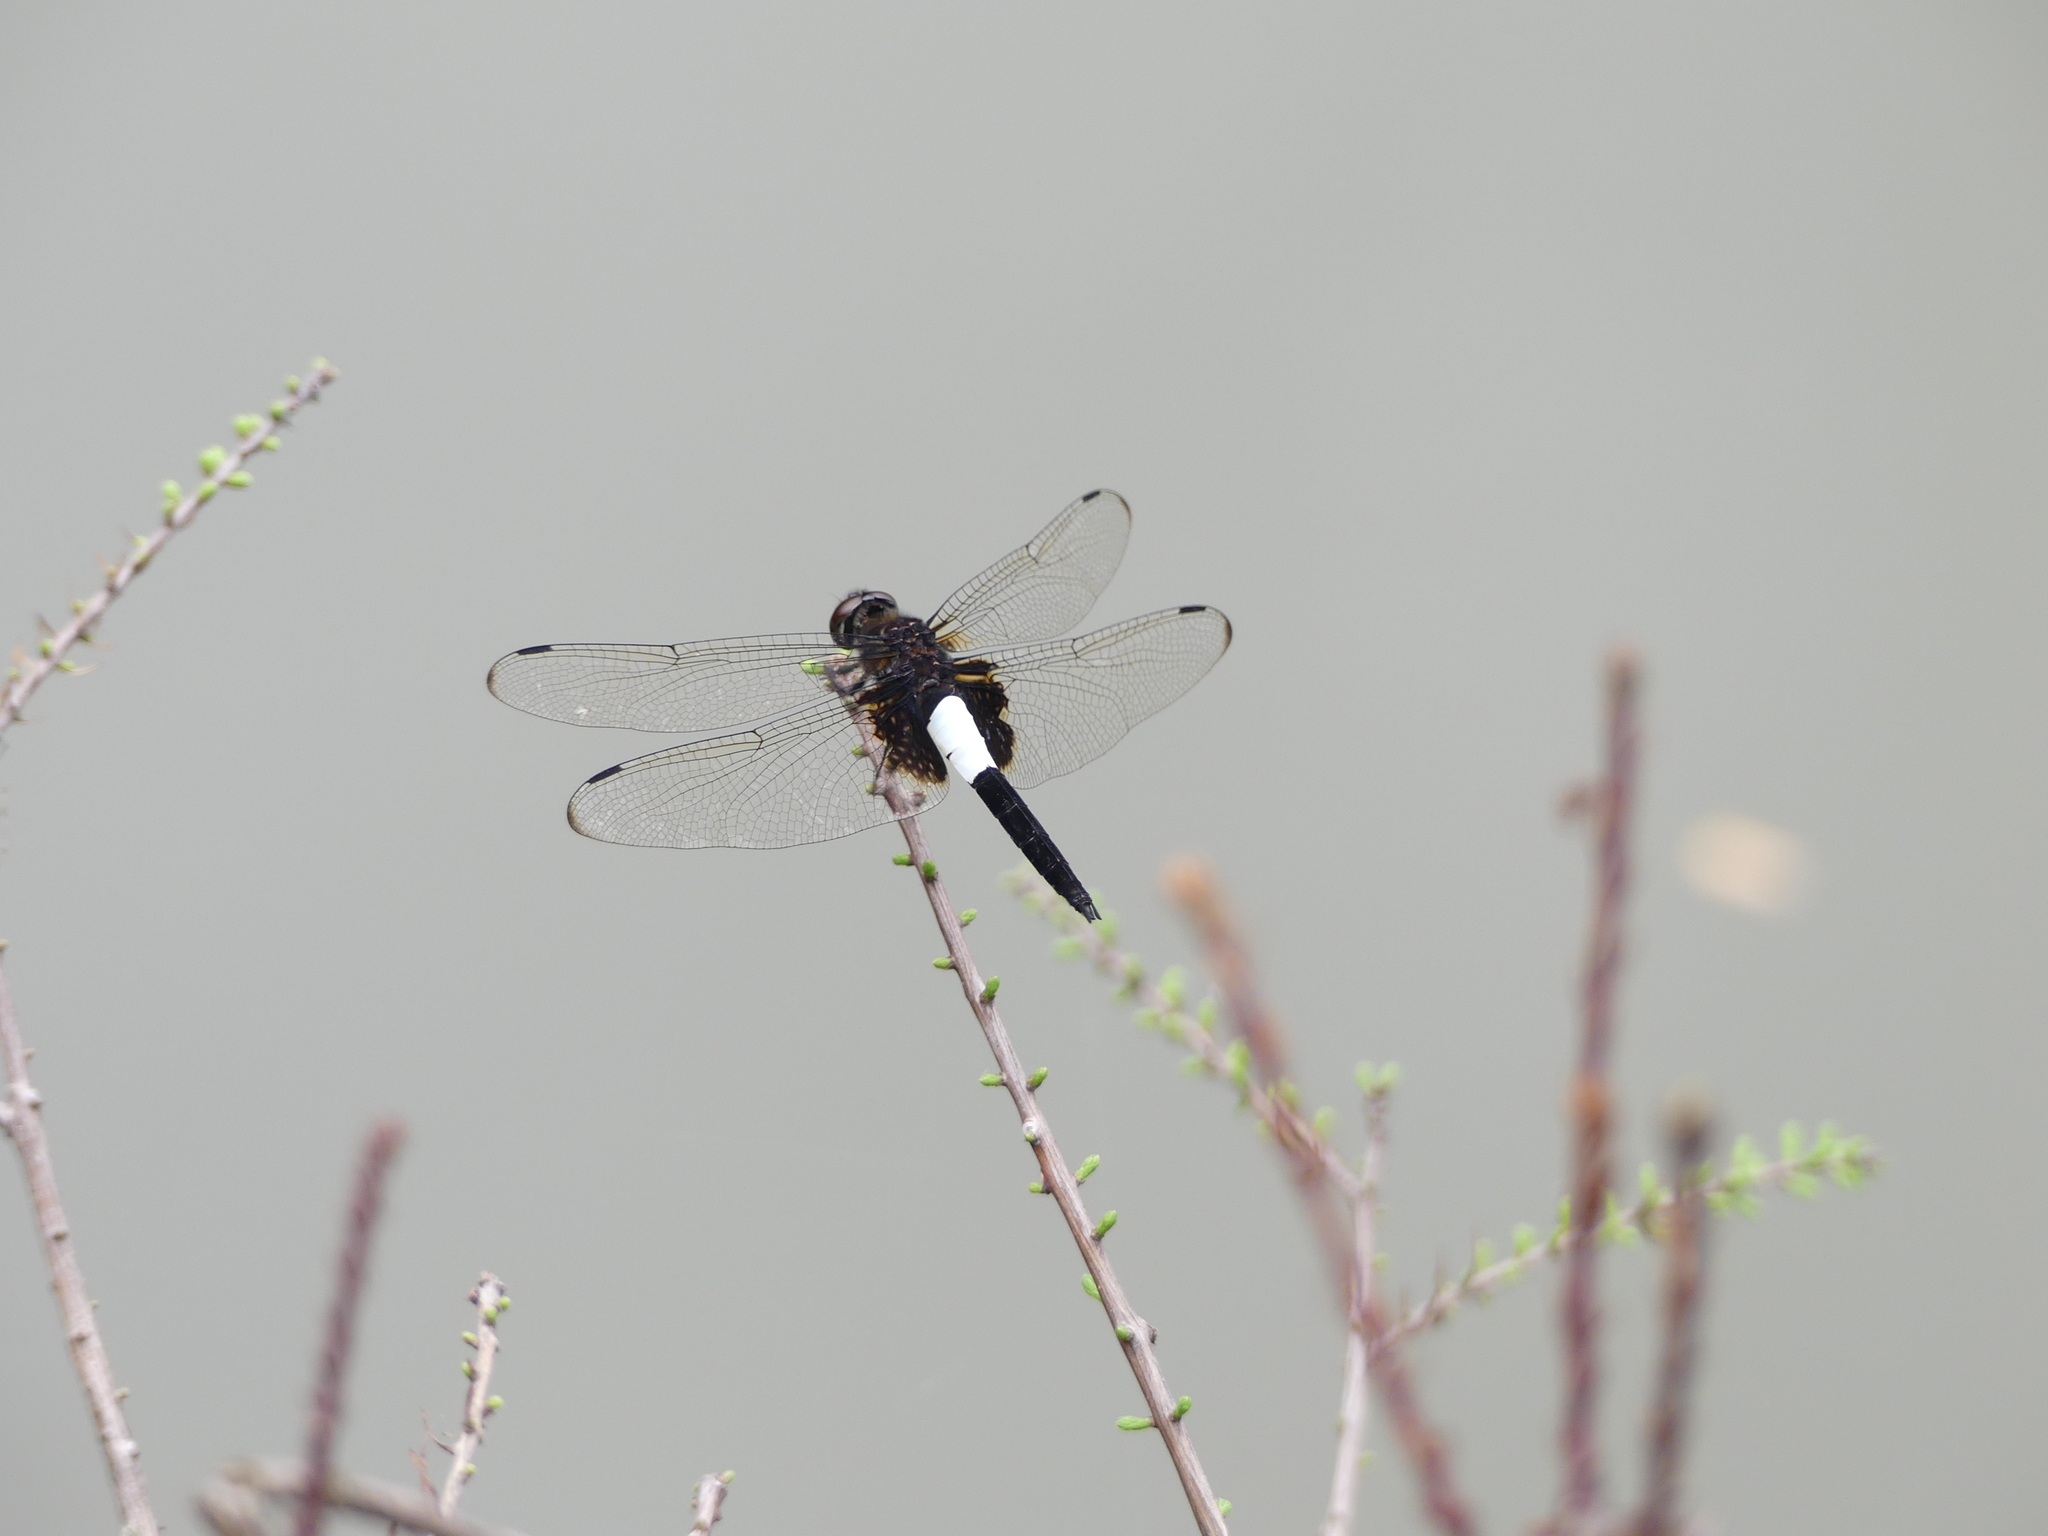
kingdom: Animalia
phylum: Arthropoda
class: Insecta
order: Odonata
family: Libellulidae
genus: Pseudothemis
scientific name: Pseudothemis zonata
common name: Pied skimmer
